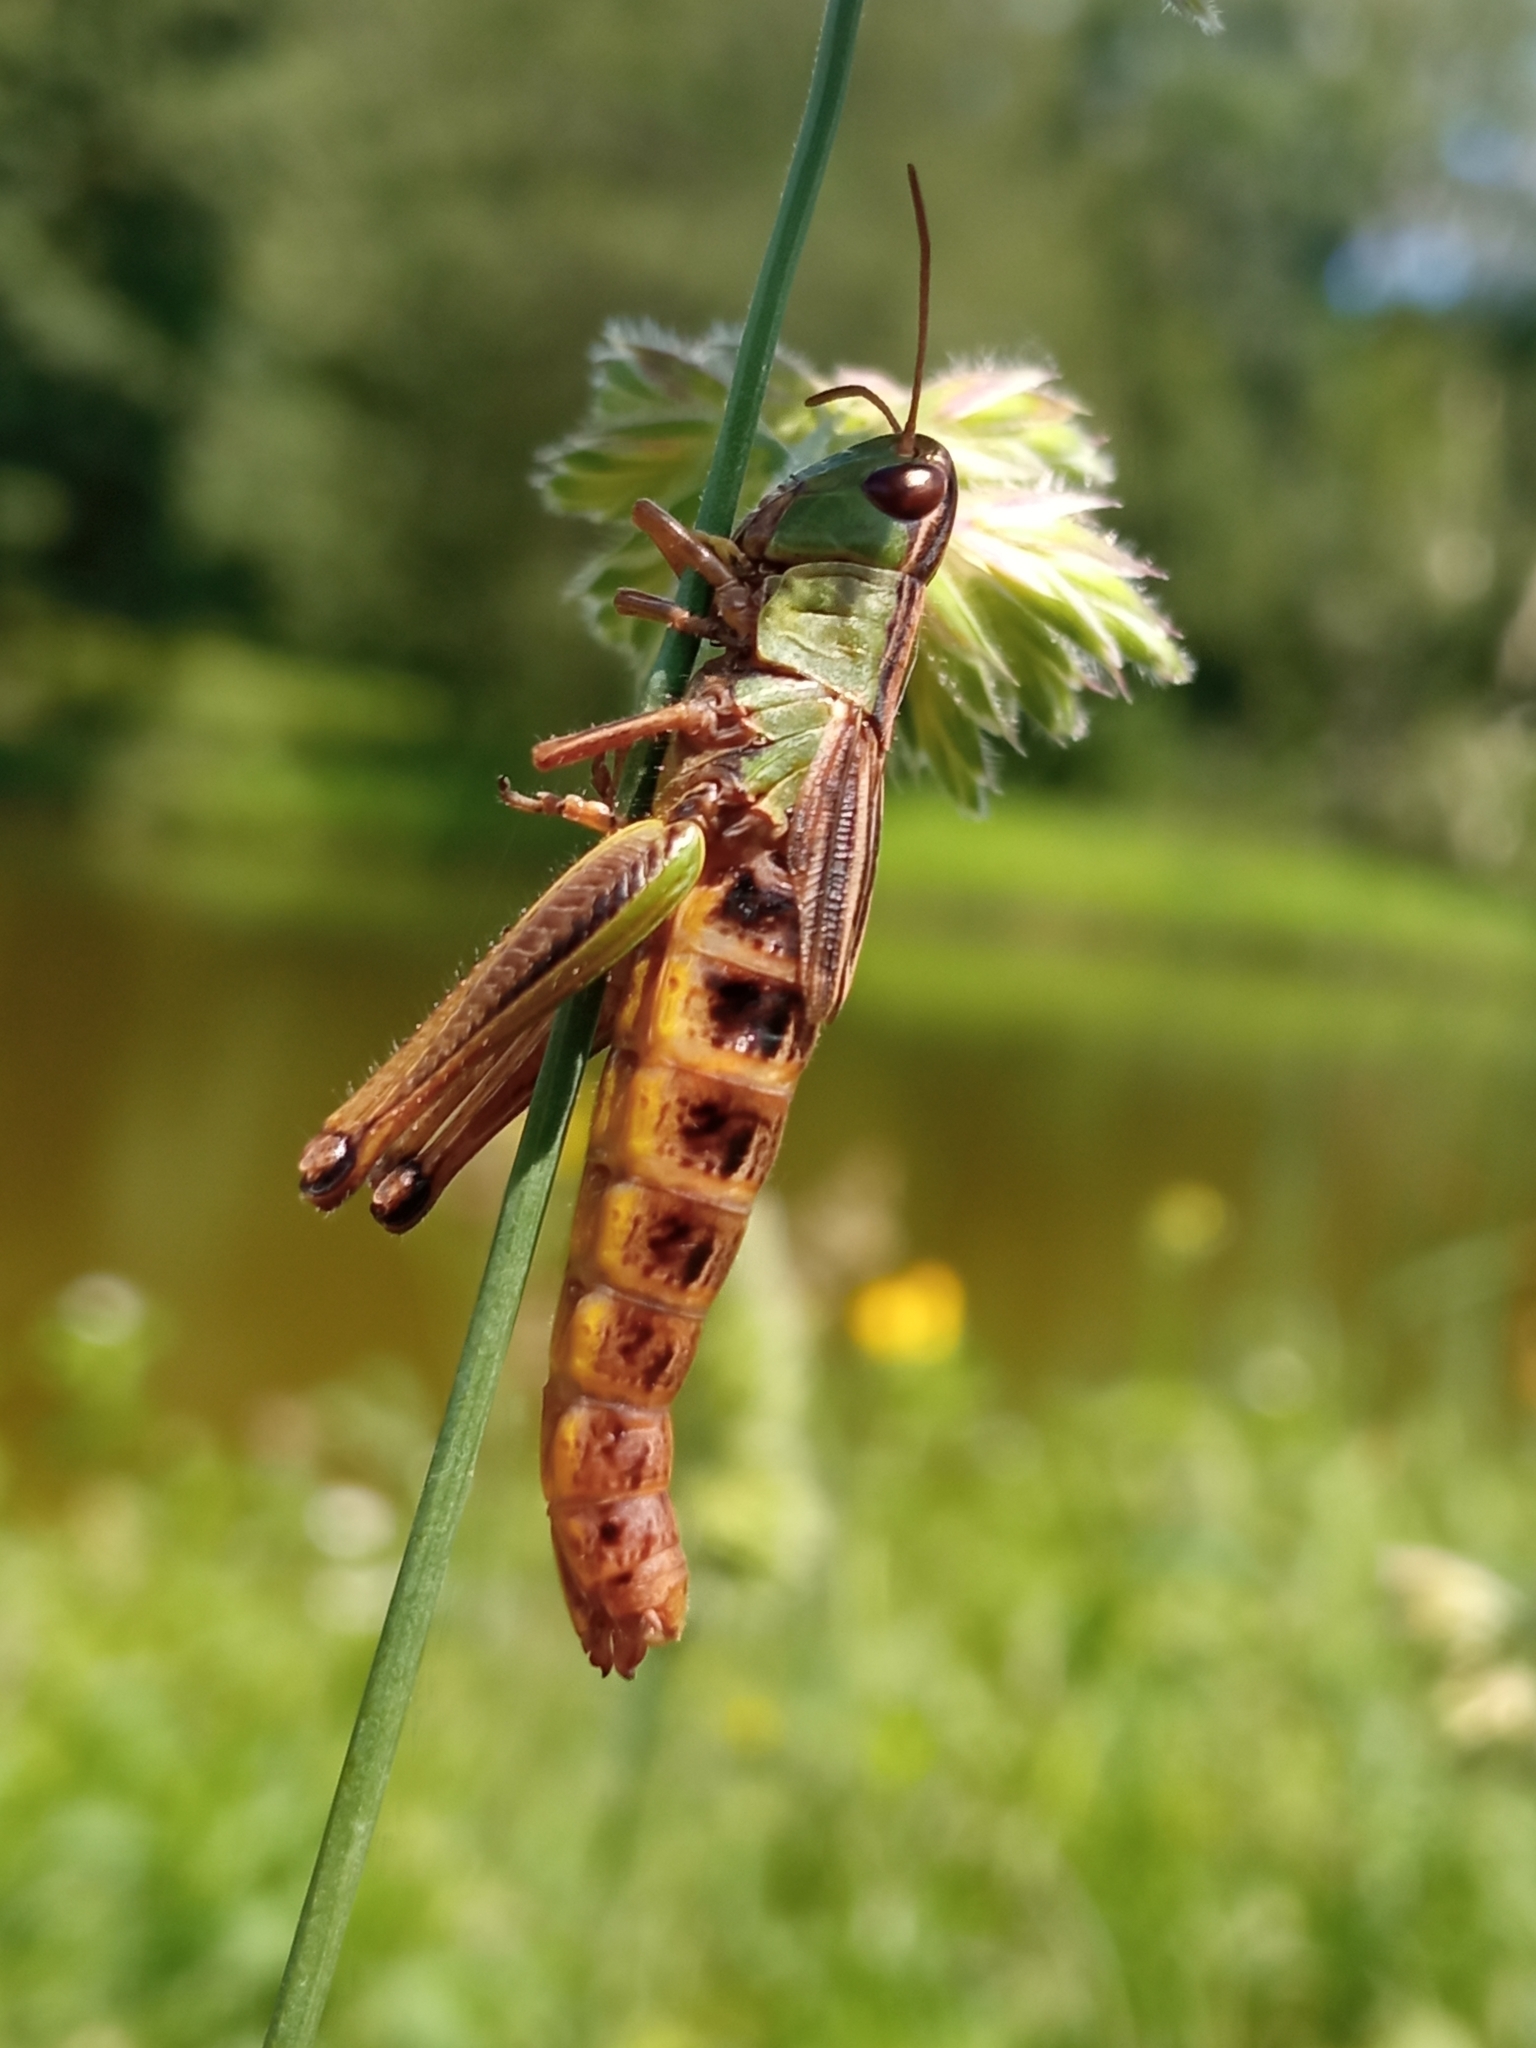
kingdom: Animalia
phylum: Arthropoda
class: Insecta
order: Orthoptera
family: Acrididae
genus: Pseudochorthippus
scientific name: Pseudochorthippus parallelus
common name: Meadow grasshopper
